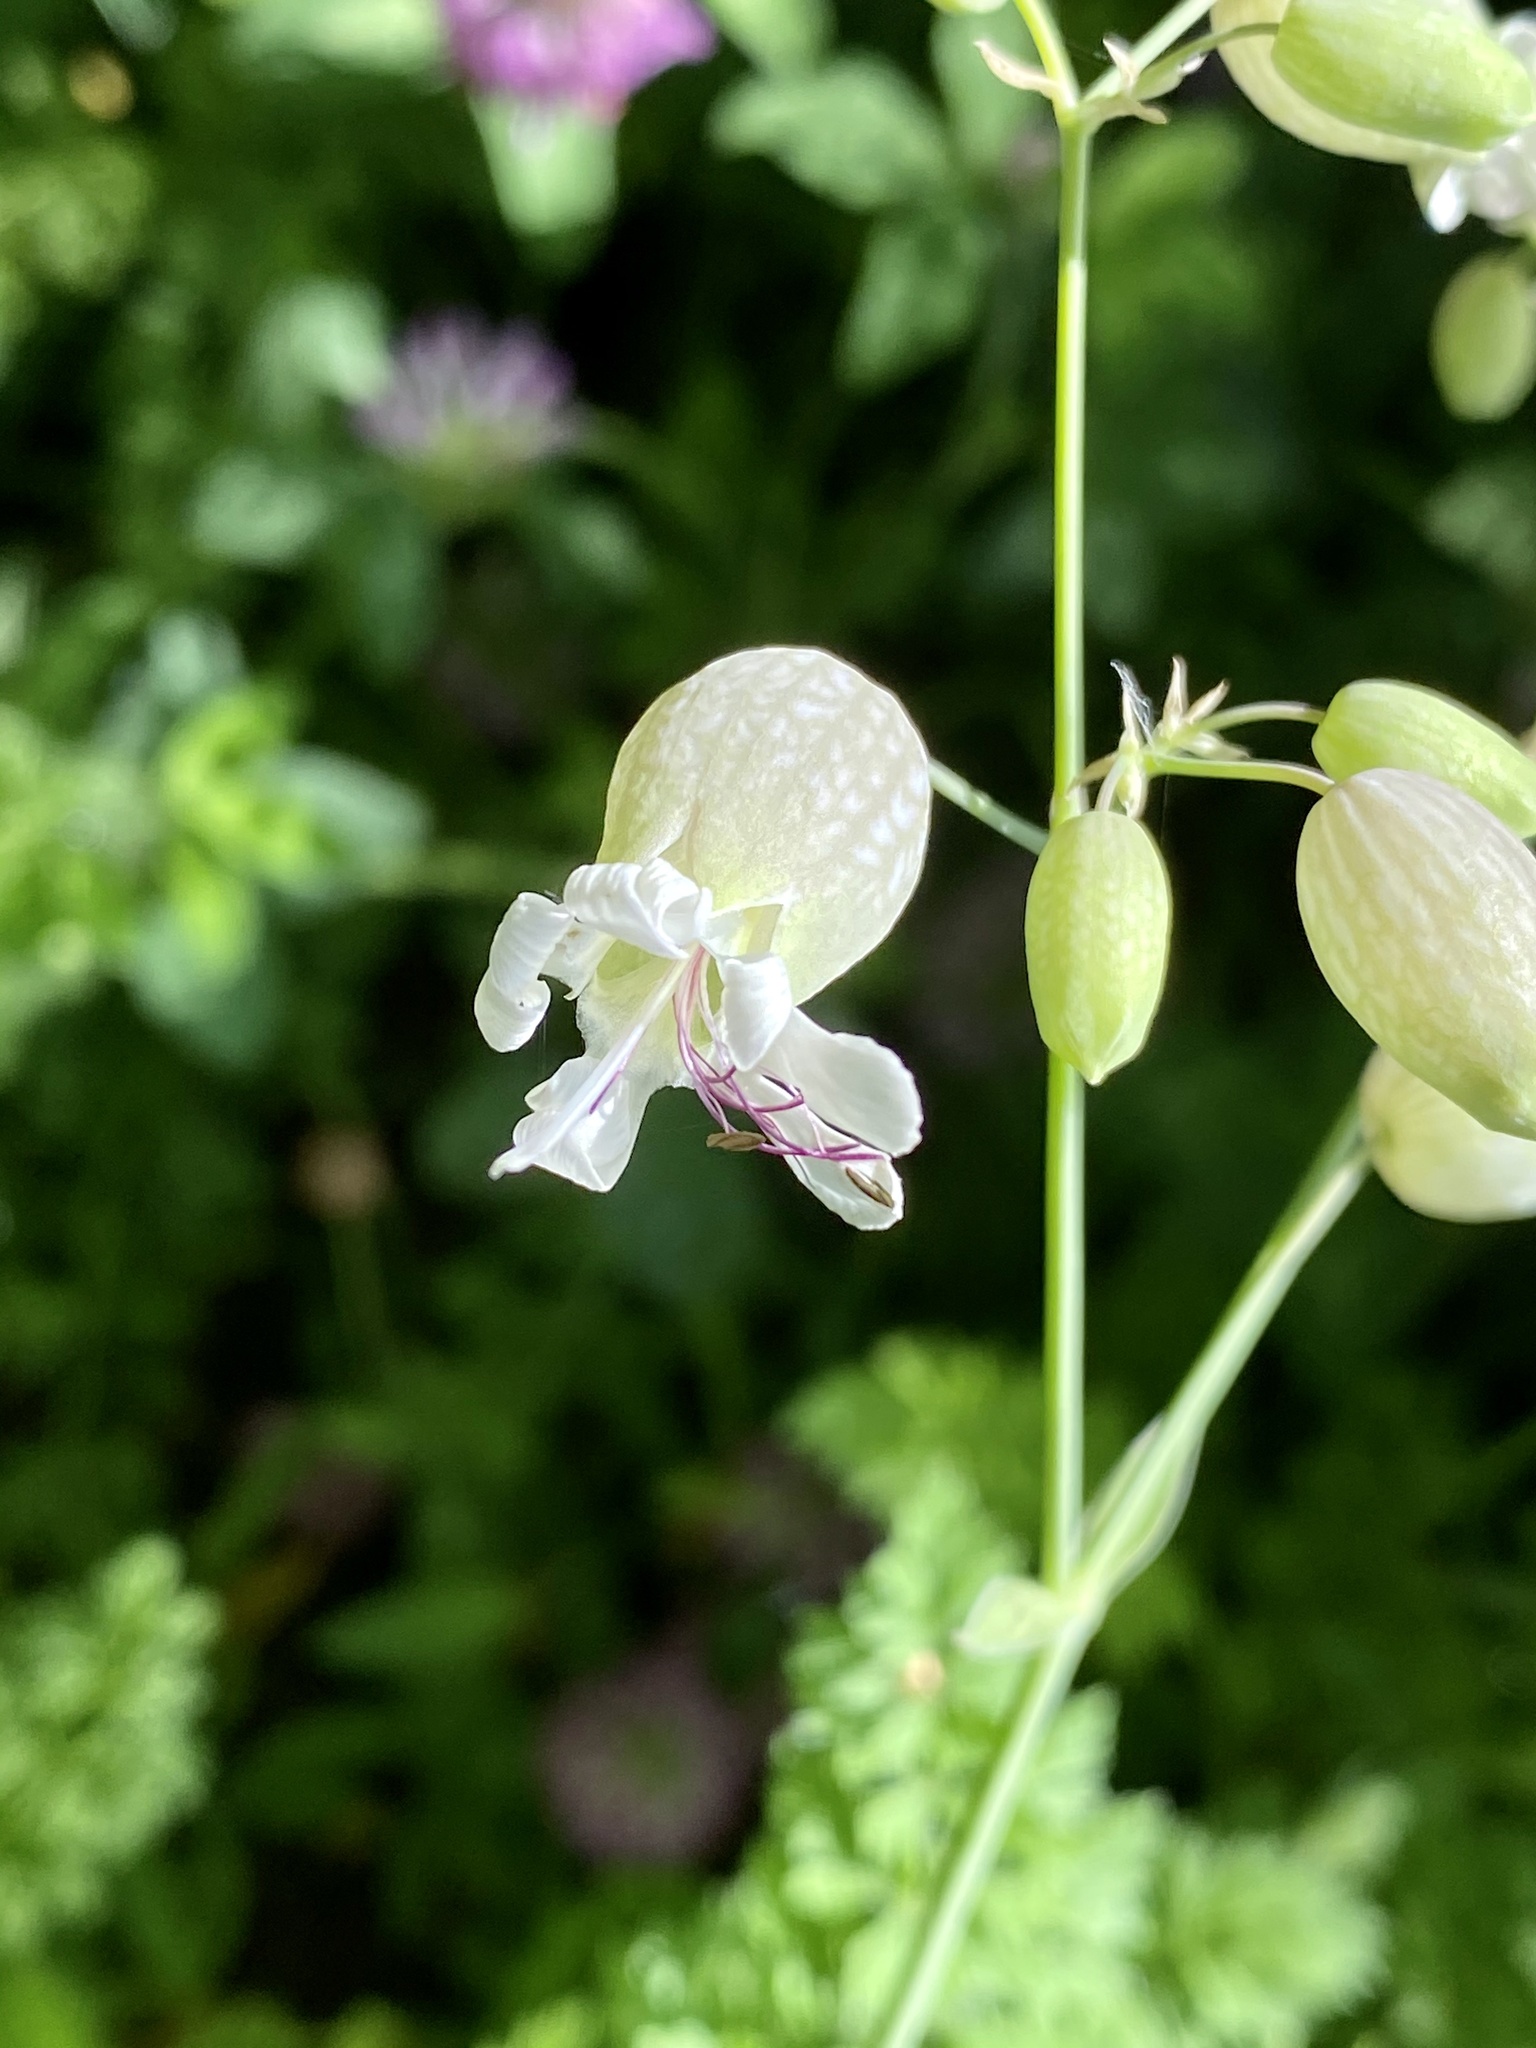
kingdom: Plantae
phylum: Tracheophyta
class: Magnoliopsida
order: Caryophyllales
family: Caryophyllaceae
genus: Silene
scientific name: Silene vulgaris
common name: Bladder campion
